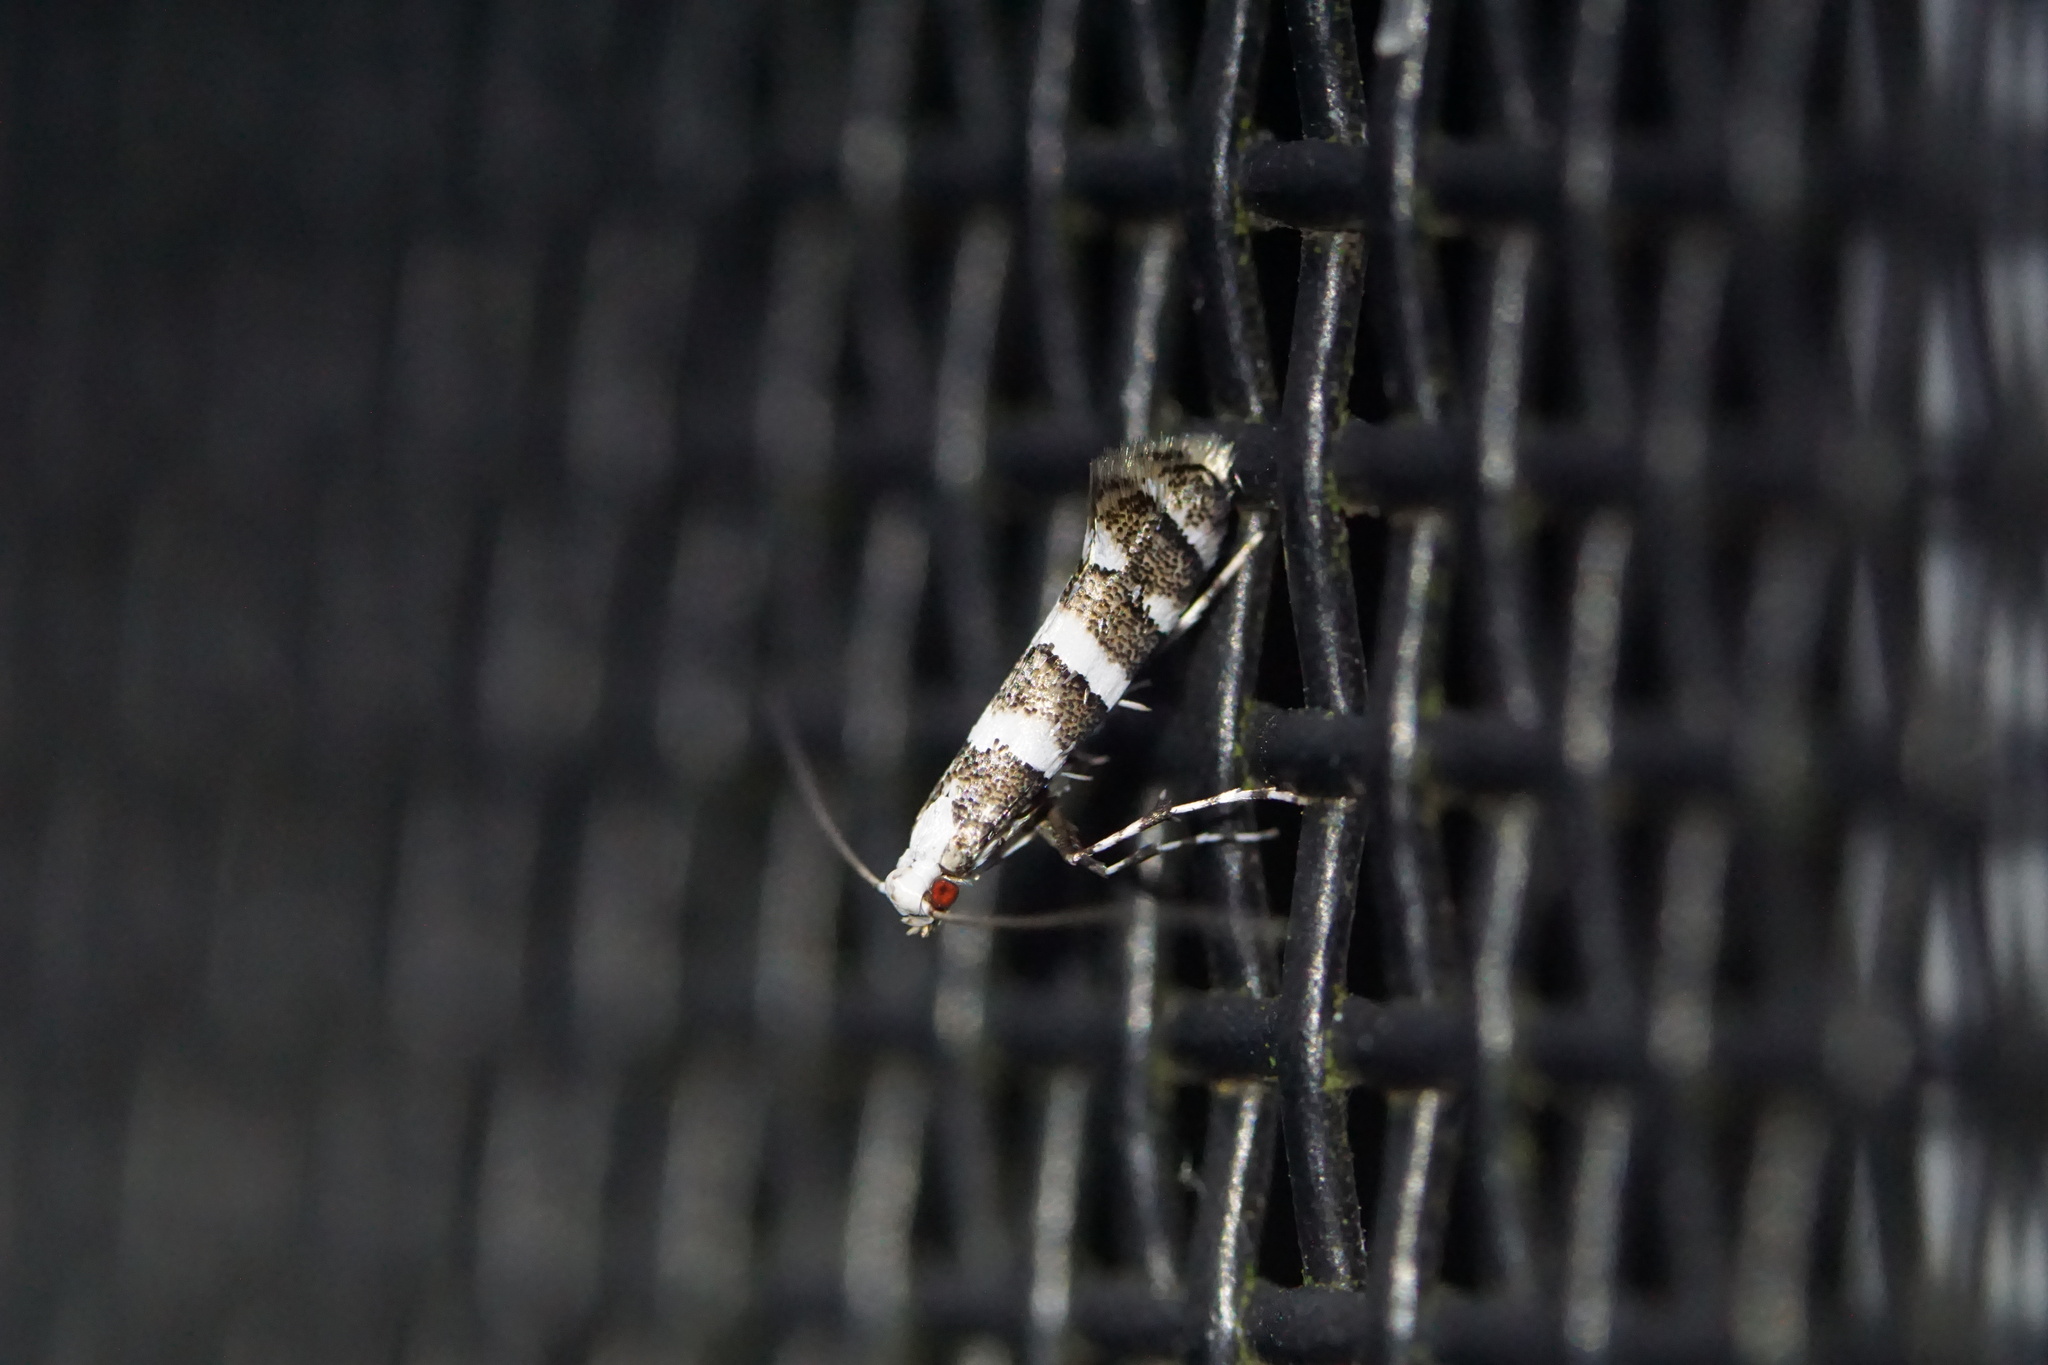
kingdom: Animalia
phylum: Arthropoda
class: Insecta
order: Lepidoptera
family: Gracillariidae
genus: Marmara
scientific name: Marmara fasciella
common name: White pine barkminer moth
